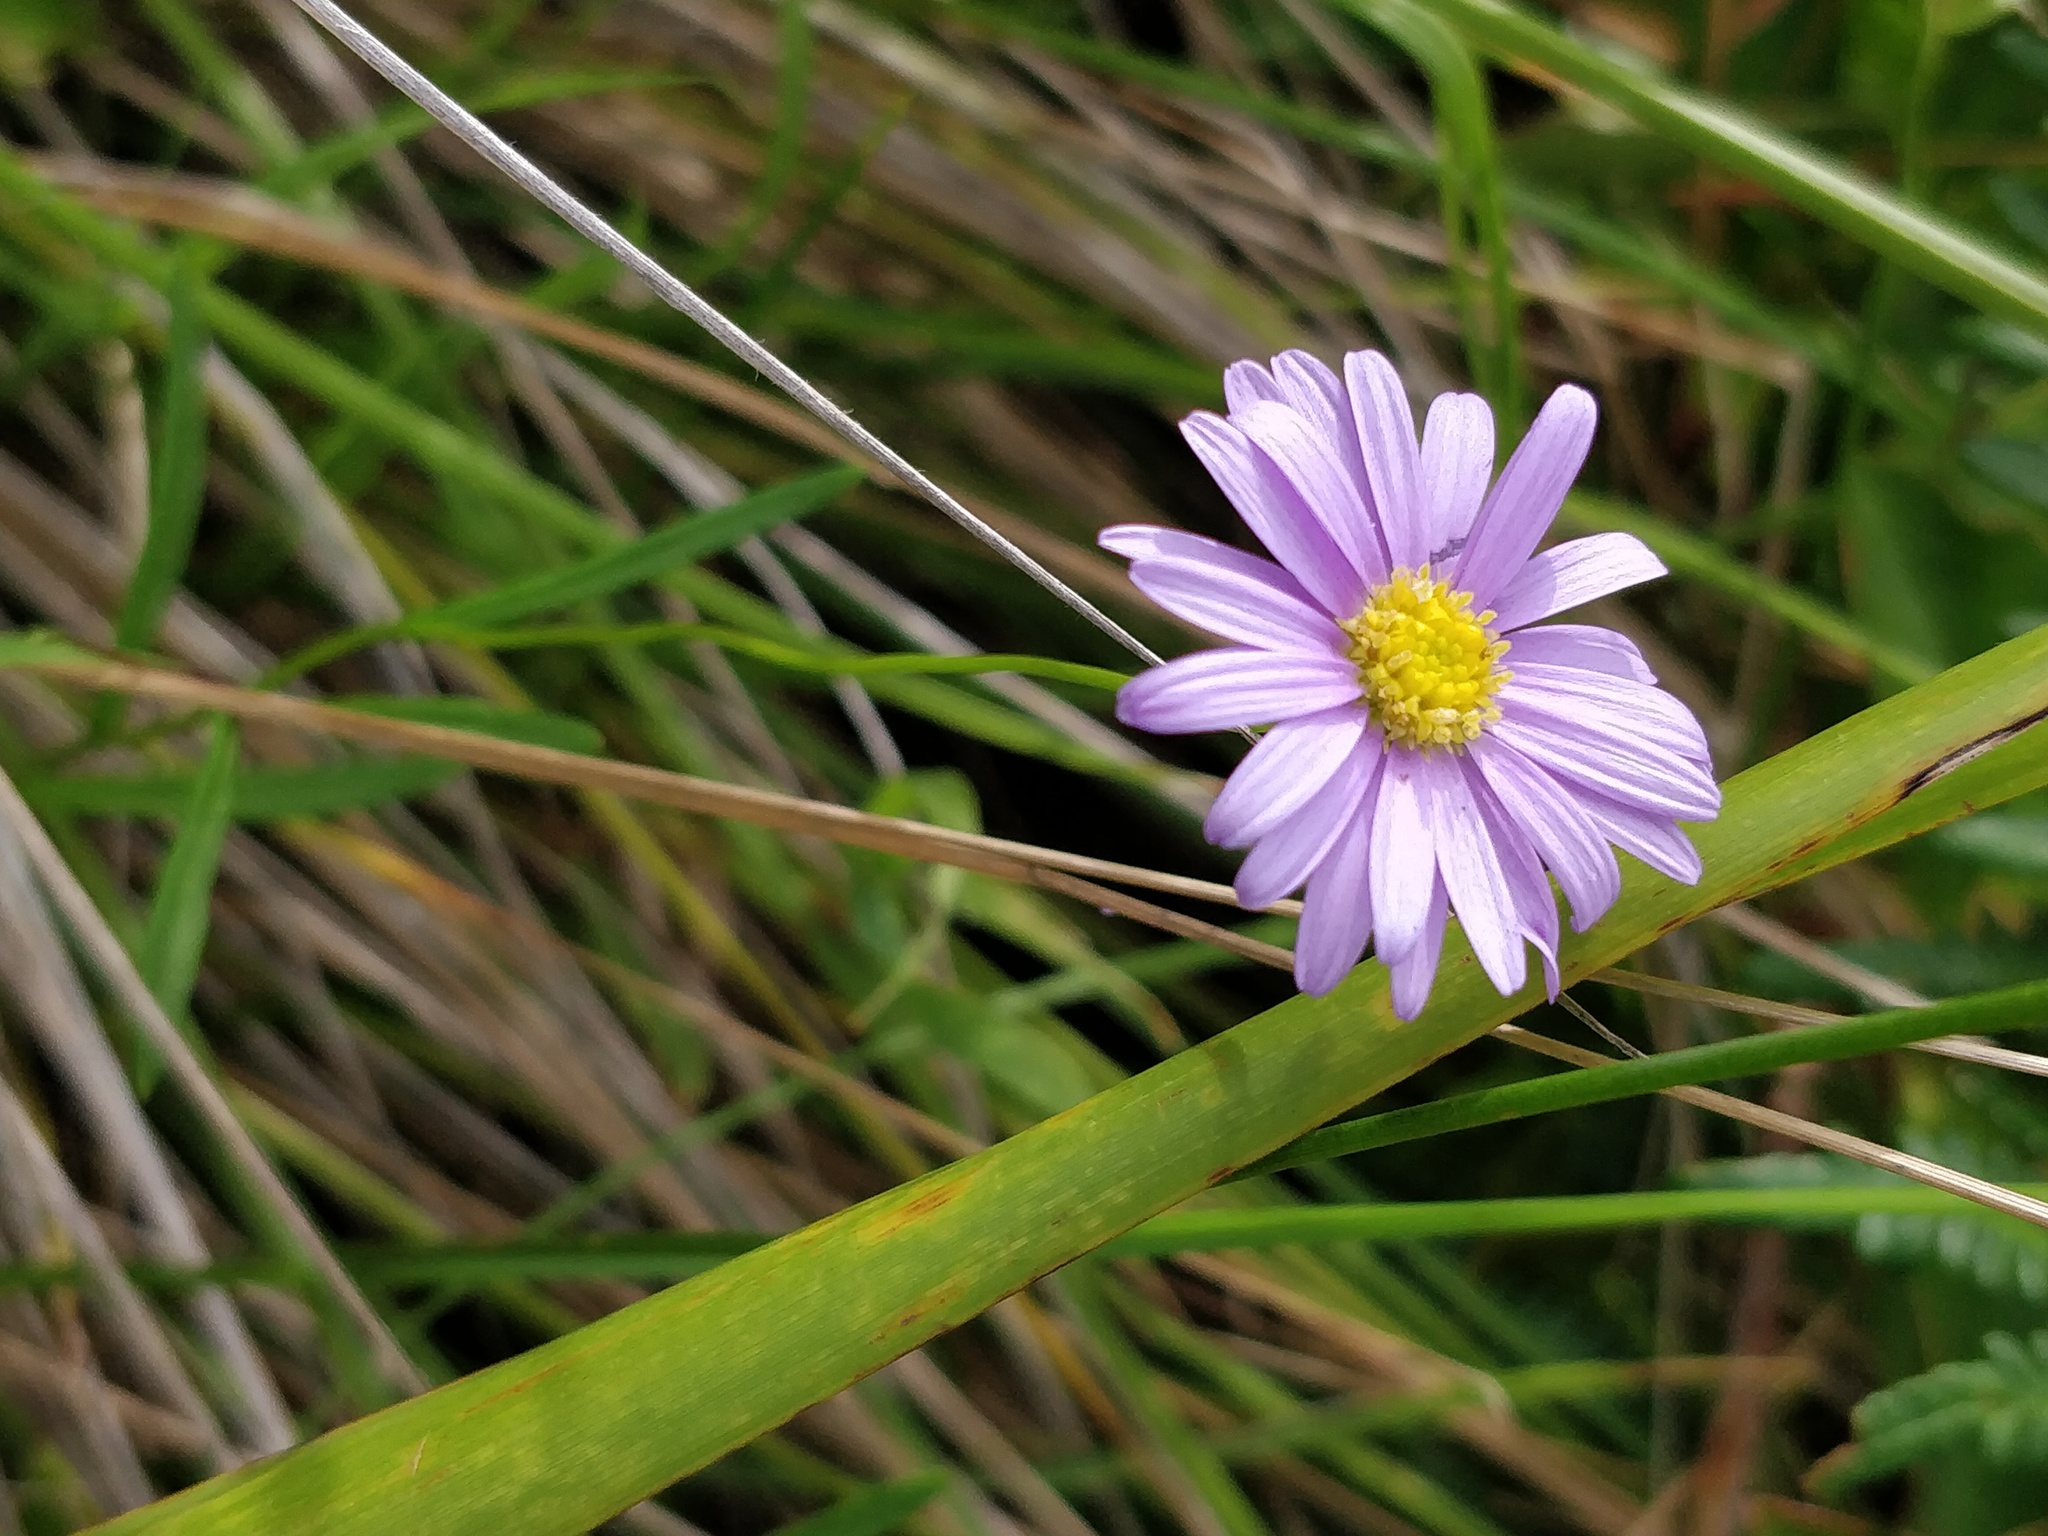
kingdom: Plantae
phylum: Tracheophyta
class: Magnoliopsida
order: Asterales
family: Asteraceae
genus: Brachyscome
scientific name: Brachyscome graminea
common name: Grass daisy
